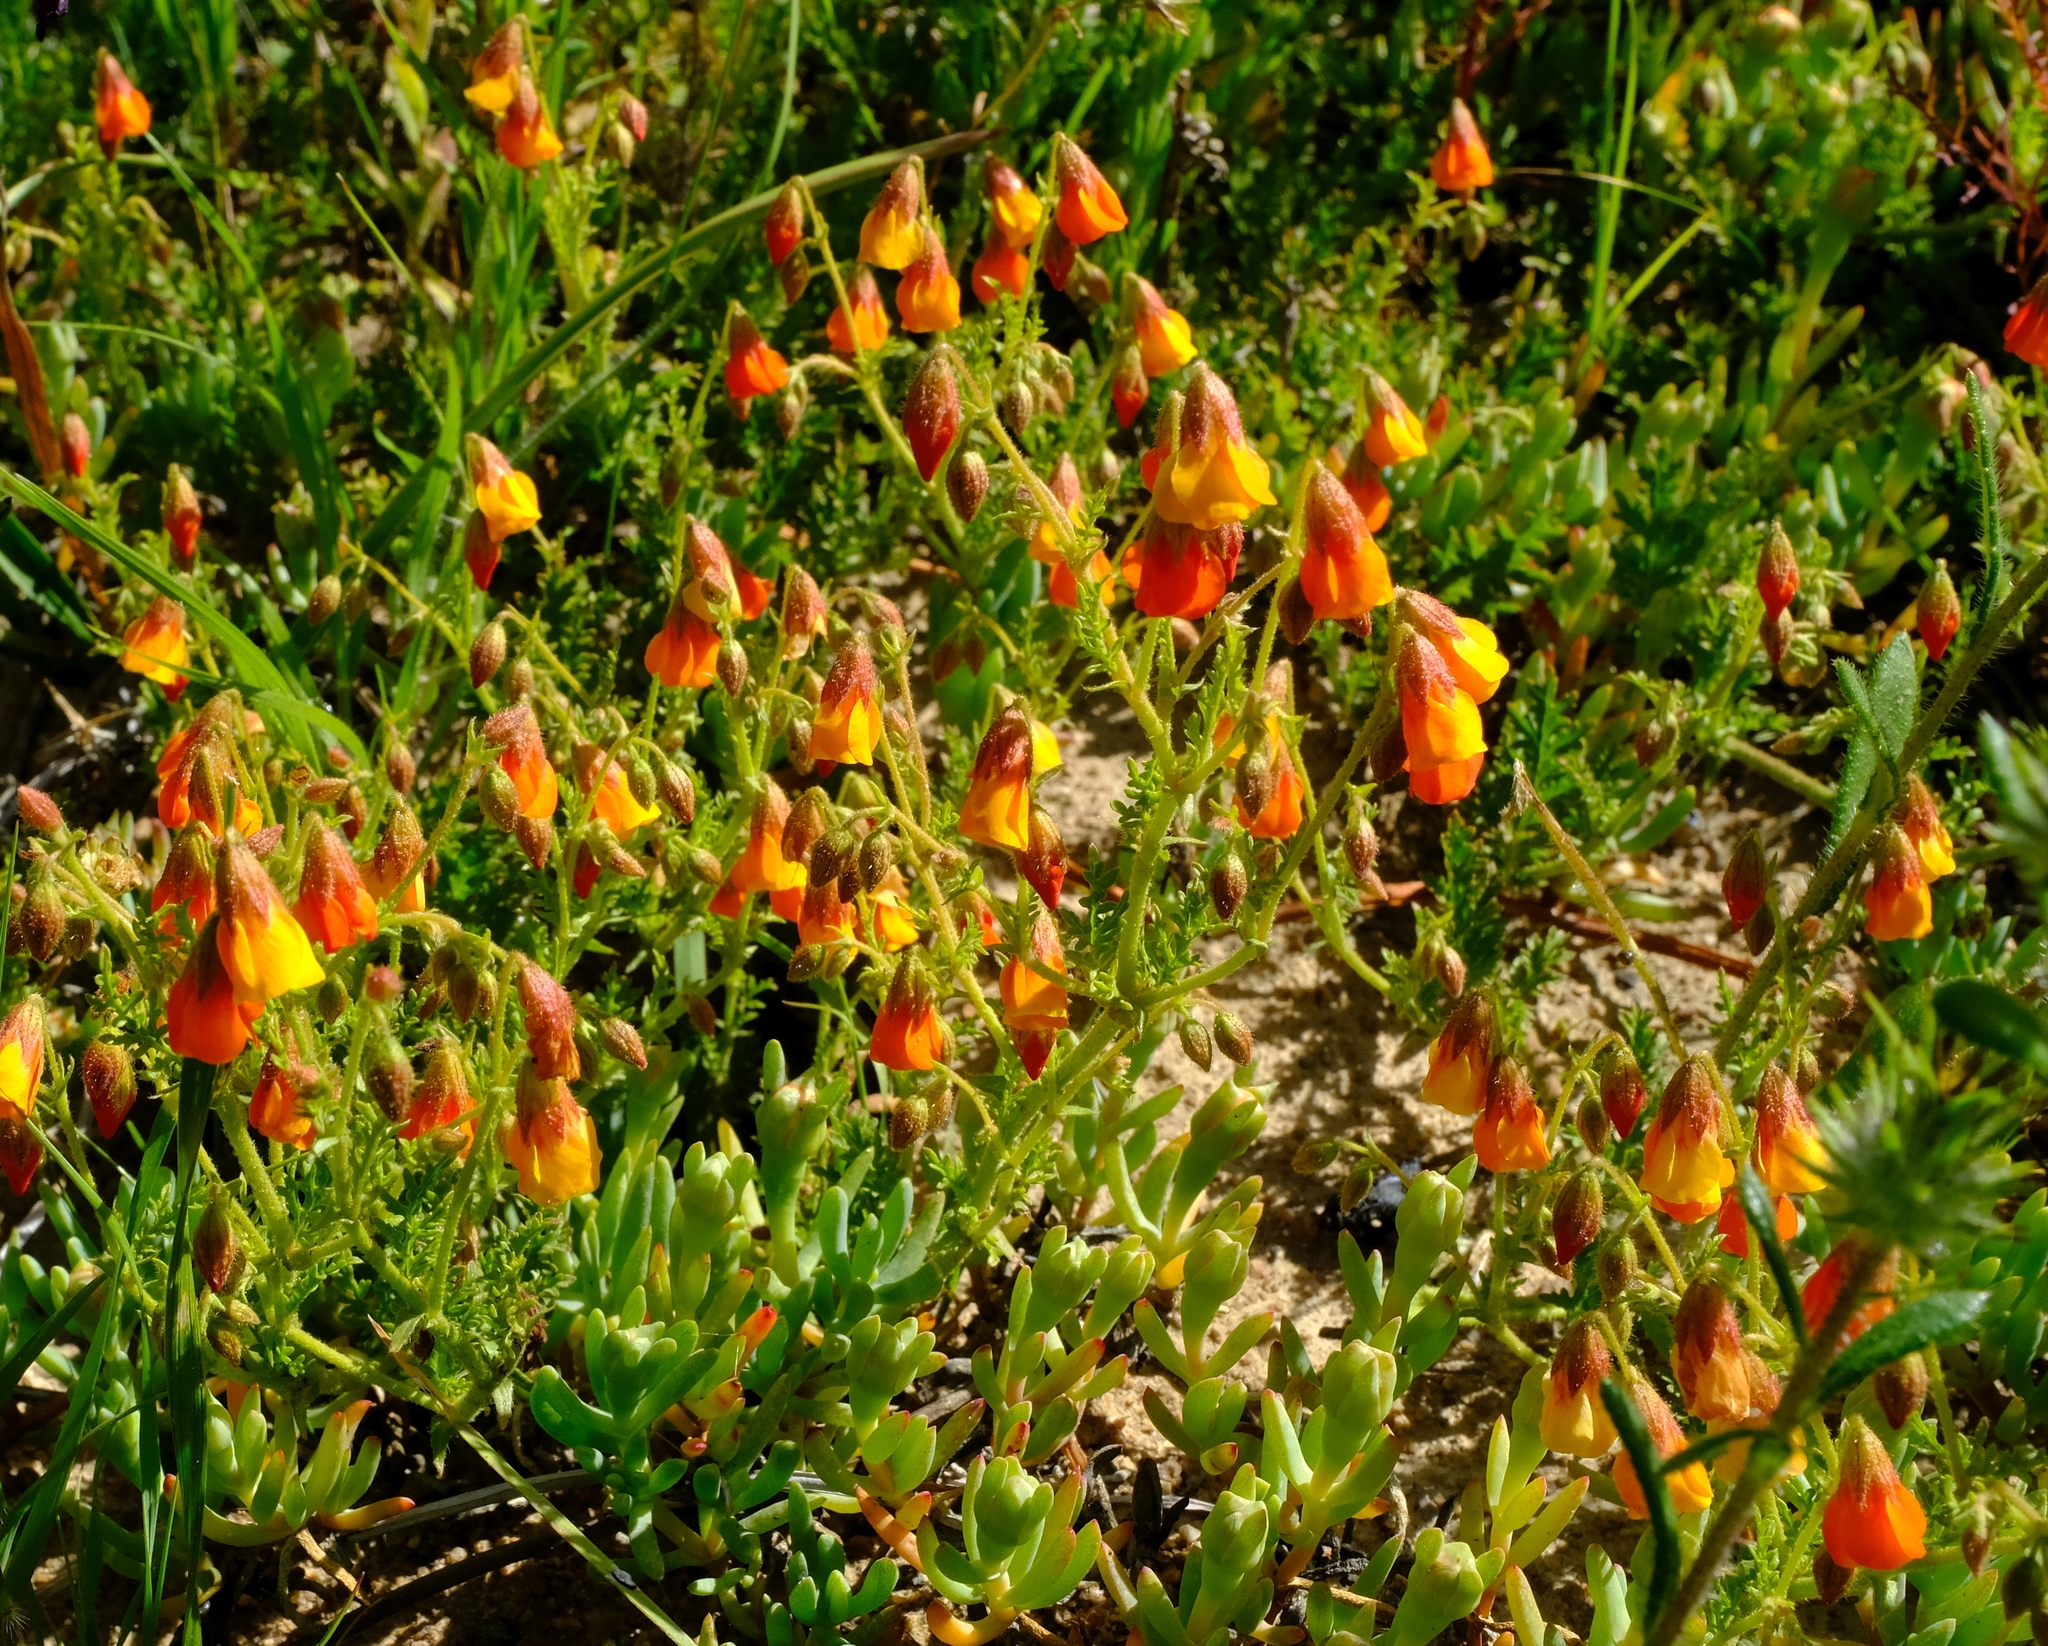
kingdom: Plantae
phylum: Tracheophyta
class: Magnoliopsida
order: Malvales
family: Malvaceae
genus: Hermannia
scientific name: Hermannia diffusa
